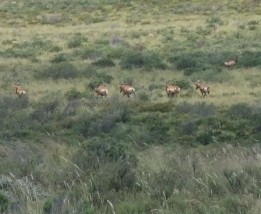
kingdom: Animalia
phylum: Chordata
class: Mammalia
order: Artiodactyla
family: Bovidae
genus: Alcelaphus
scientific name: Alcelaphus buselaphus
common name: Hartebeest
